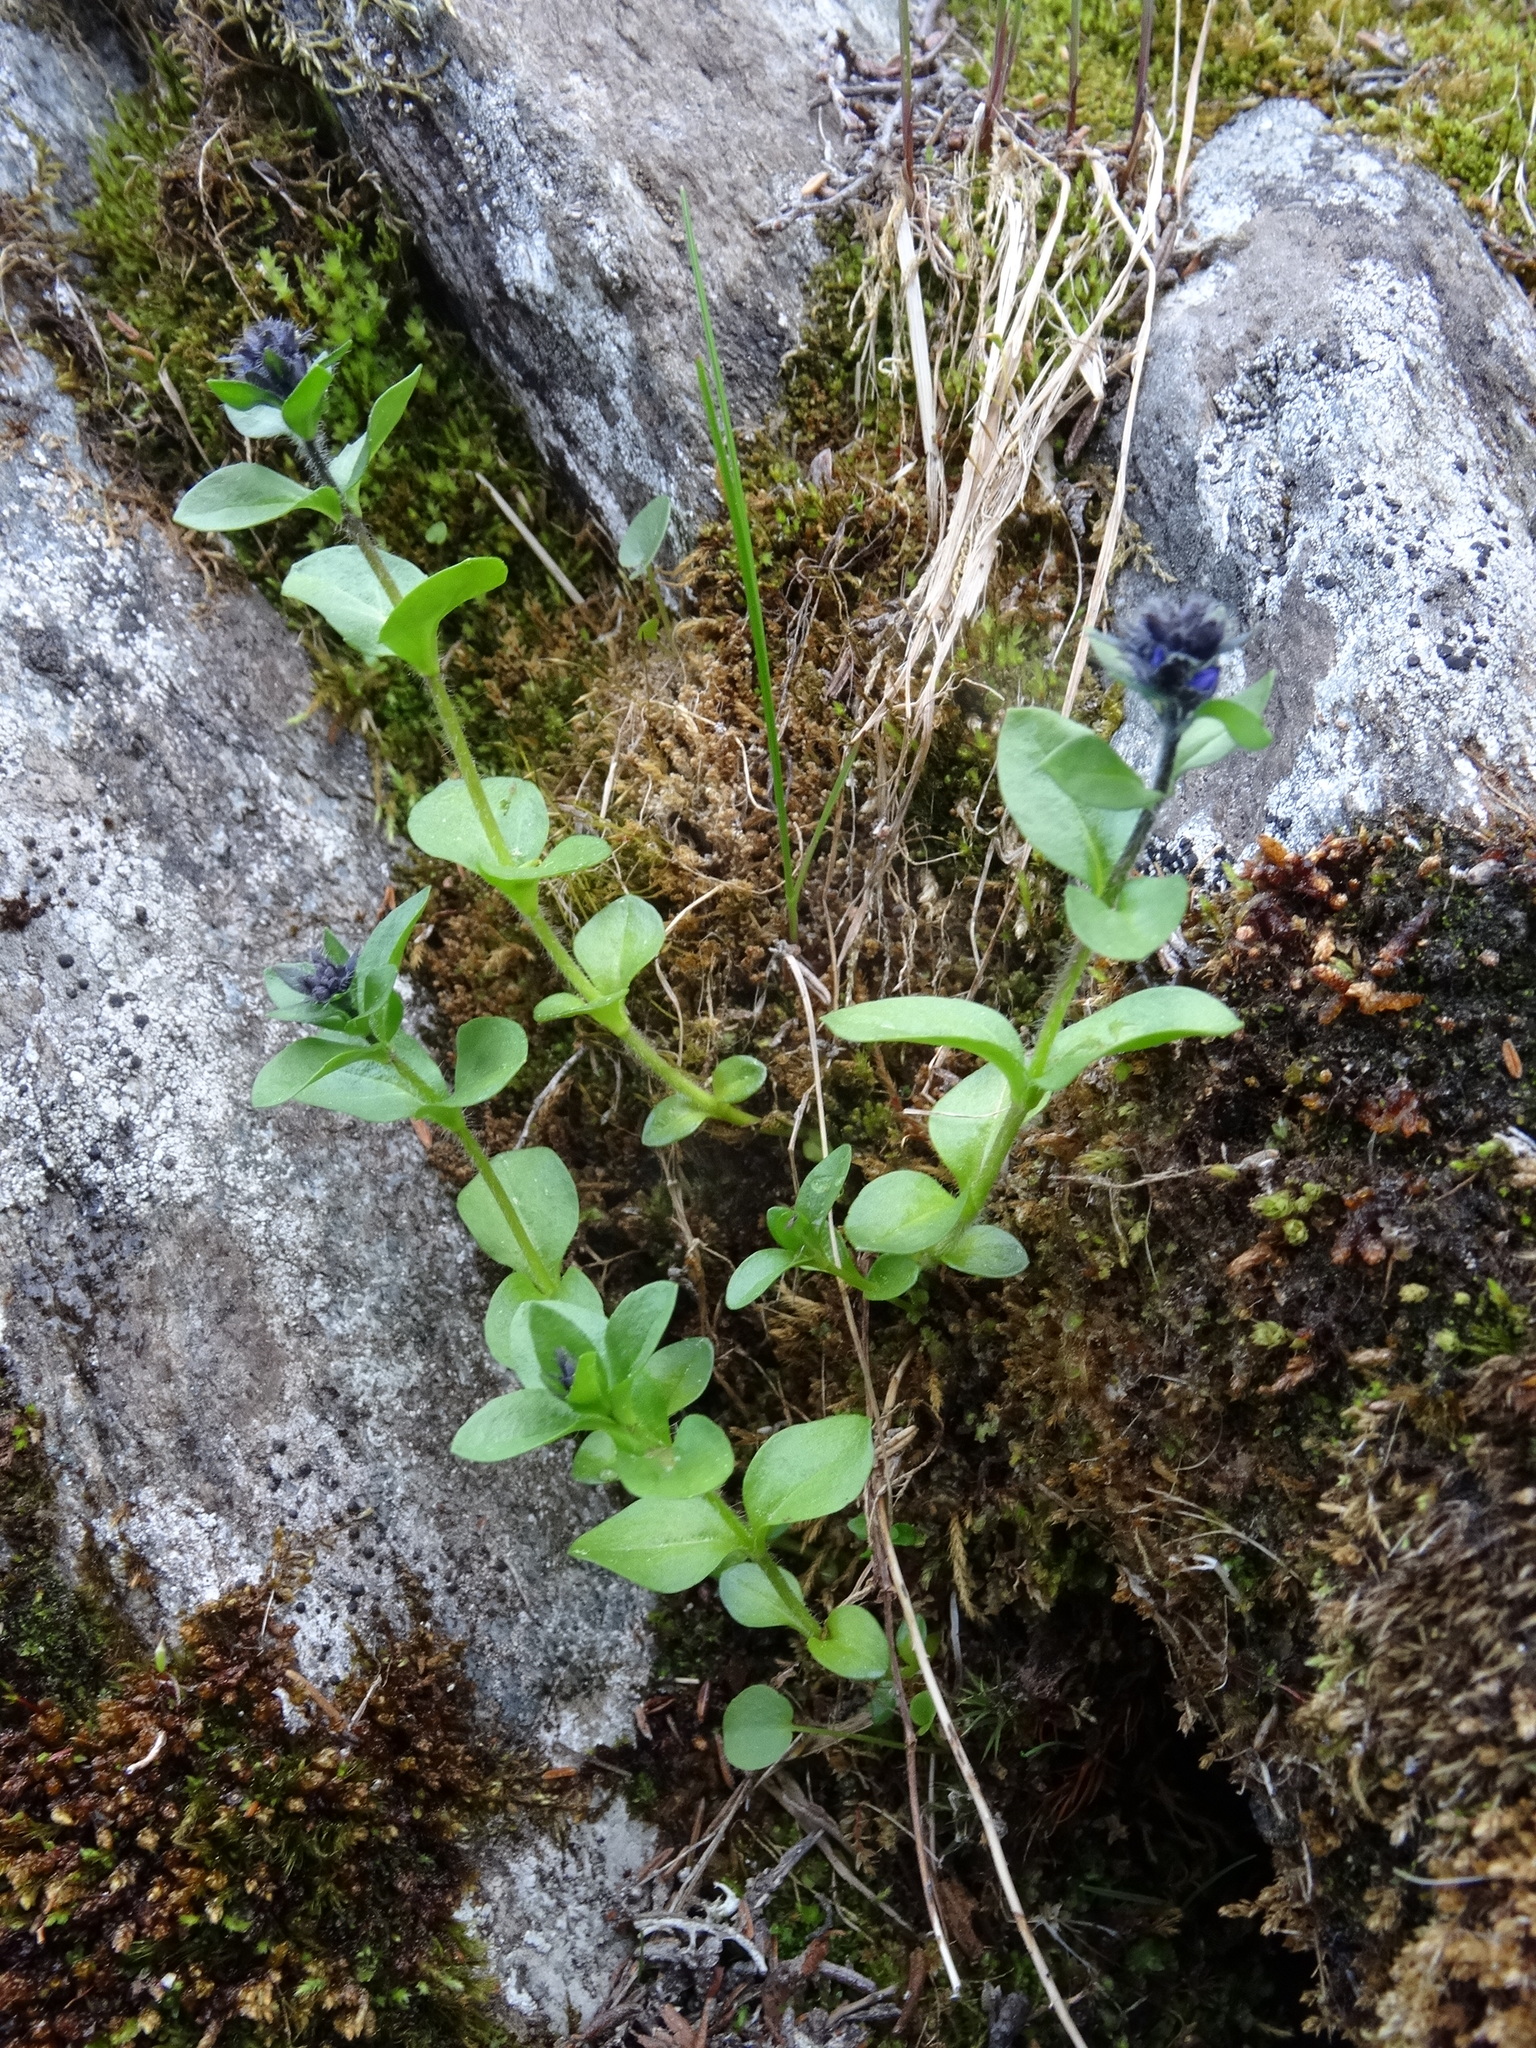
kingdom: Plantae
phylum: Tracheophyta
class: Magnoliopsida
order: Lamiales
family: Plantaginaceae
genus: Veronica
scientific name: Veronica alpina
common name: Alpine speedwell
